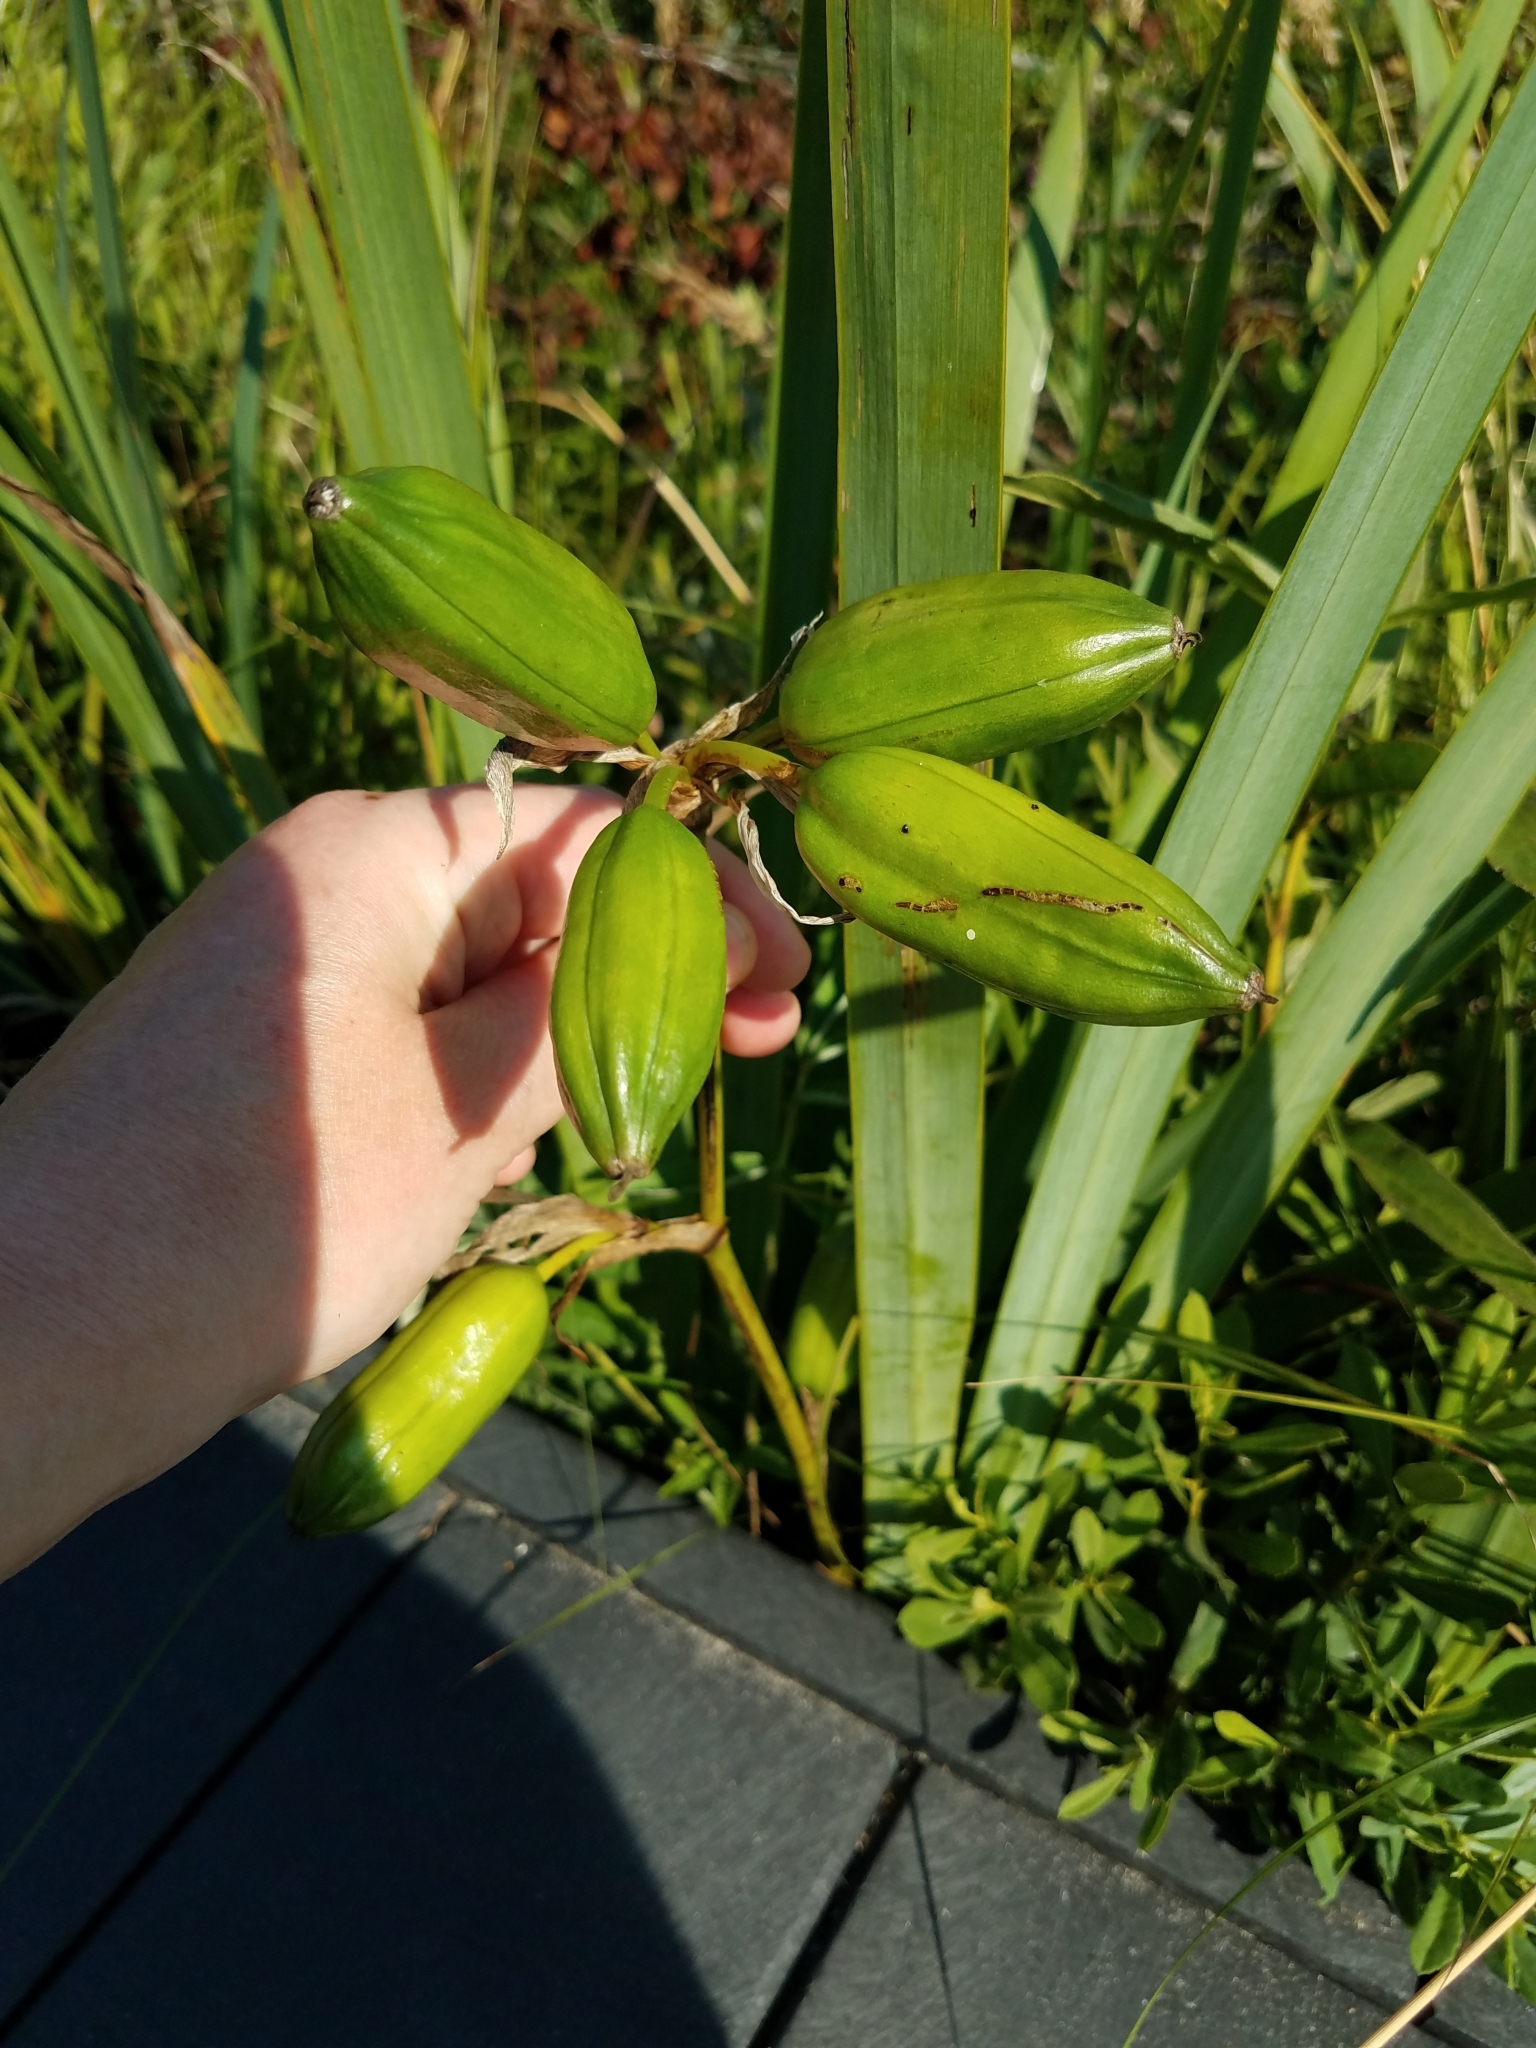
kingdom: Plantae
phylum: Tracheophyta
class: Liliopsida
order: Asparagales
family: Iridaceae
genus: Iris
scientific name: Iris pseudacorus
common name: Yellow flag
